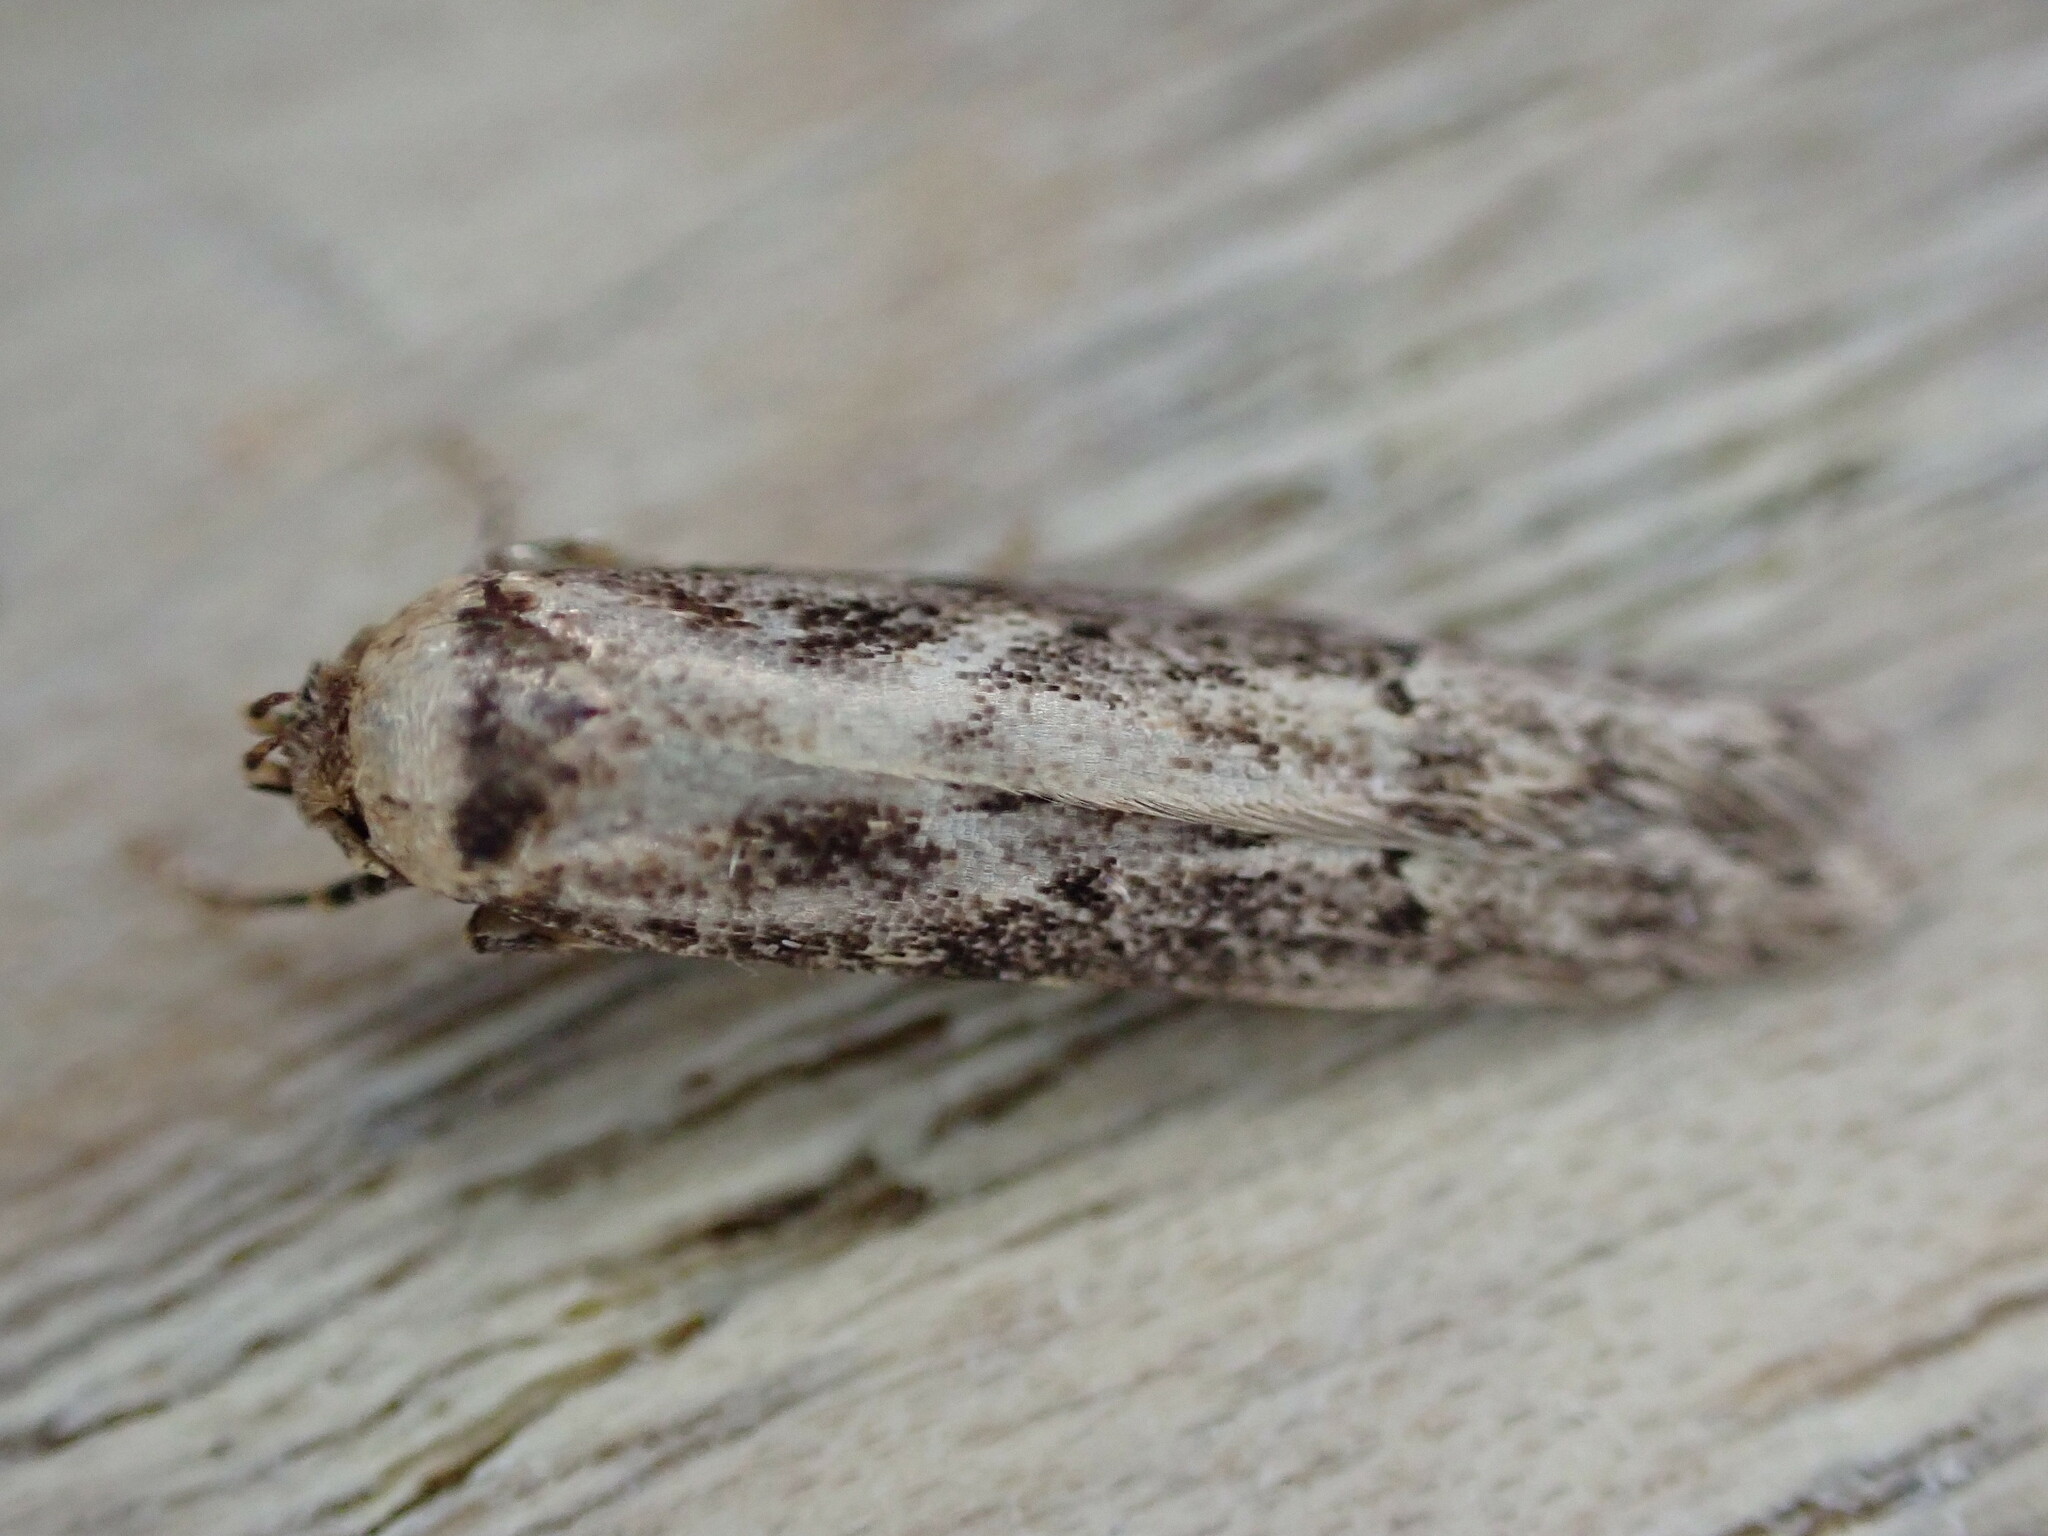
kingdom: Animalia
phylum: Arthropoda
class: Insecta
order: Lepidoptera
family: Blastobasidae
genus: Blastobasis
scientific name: Blastobasis adustella
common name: Dingy dowd
